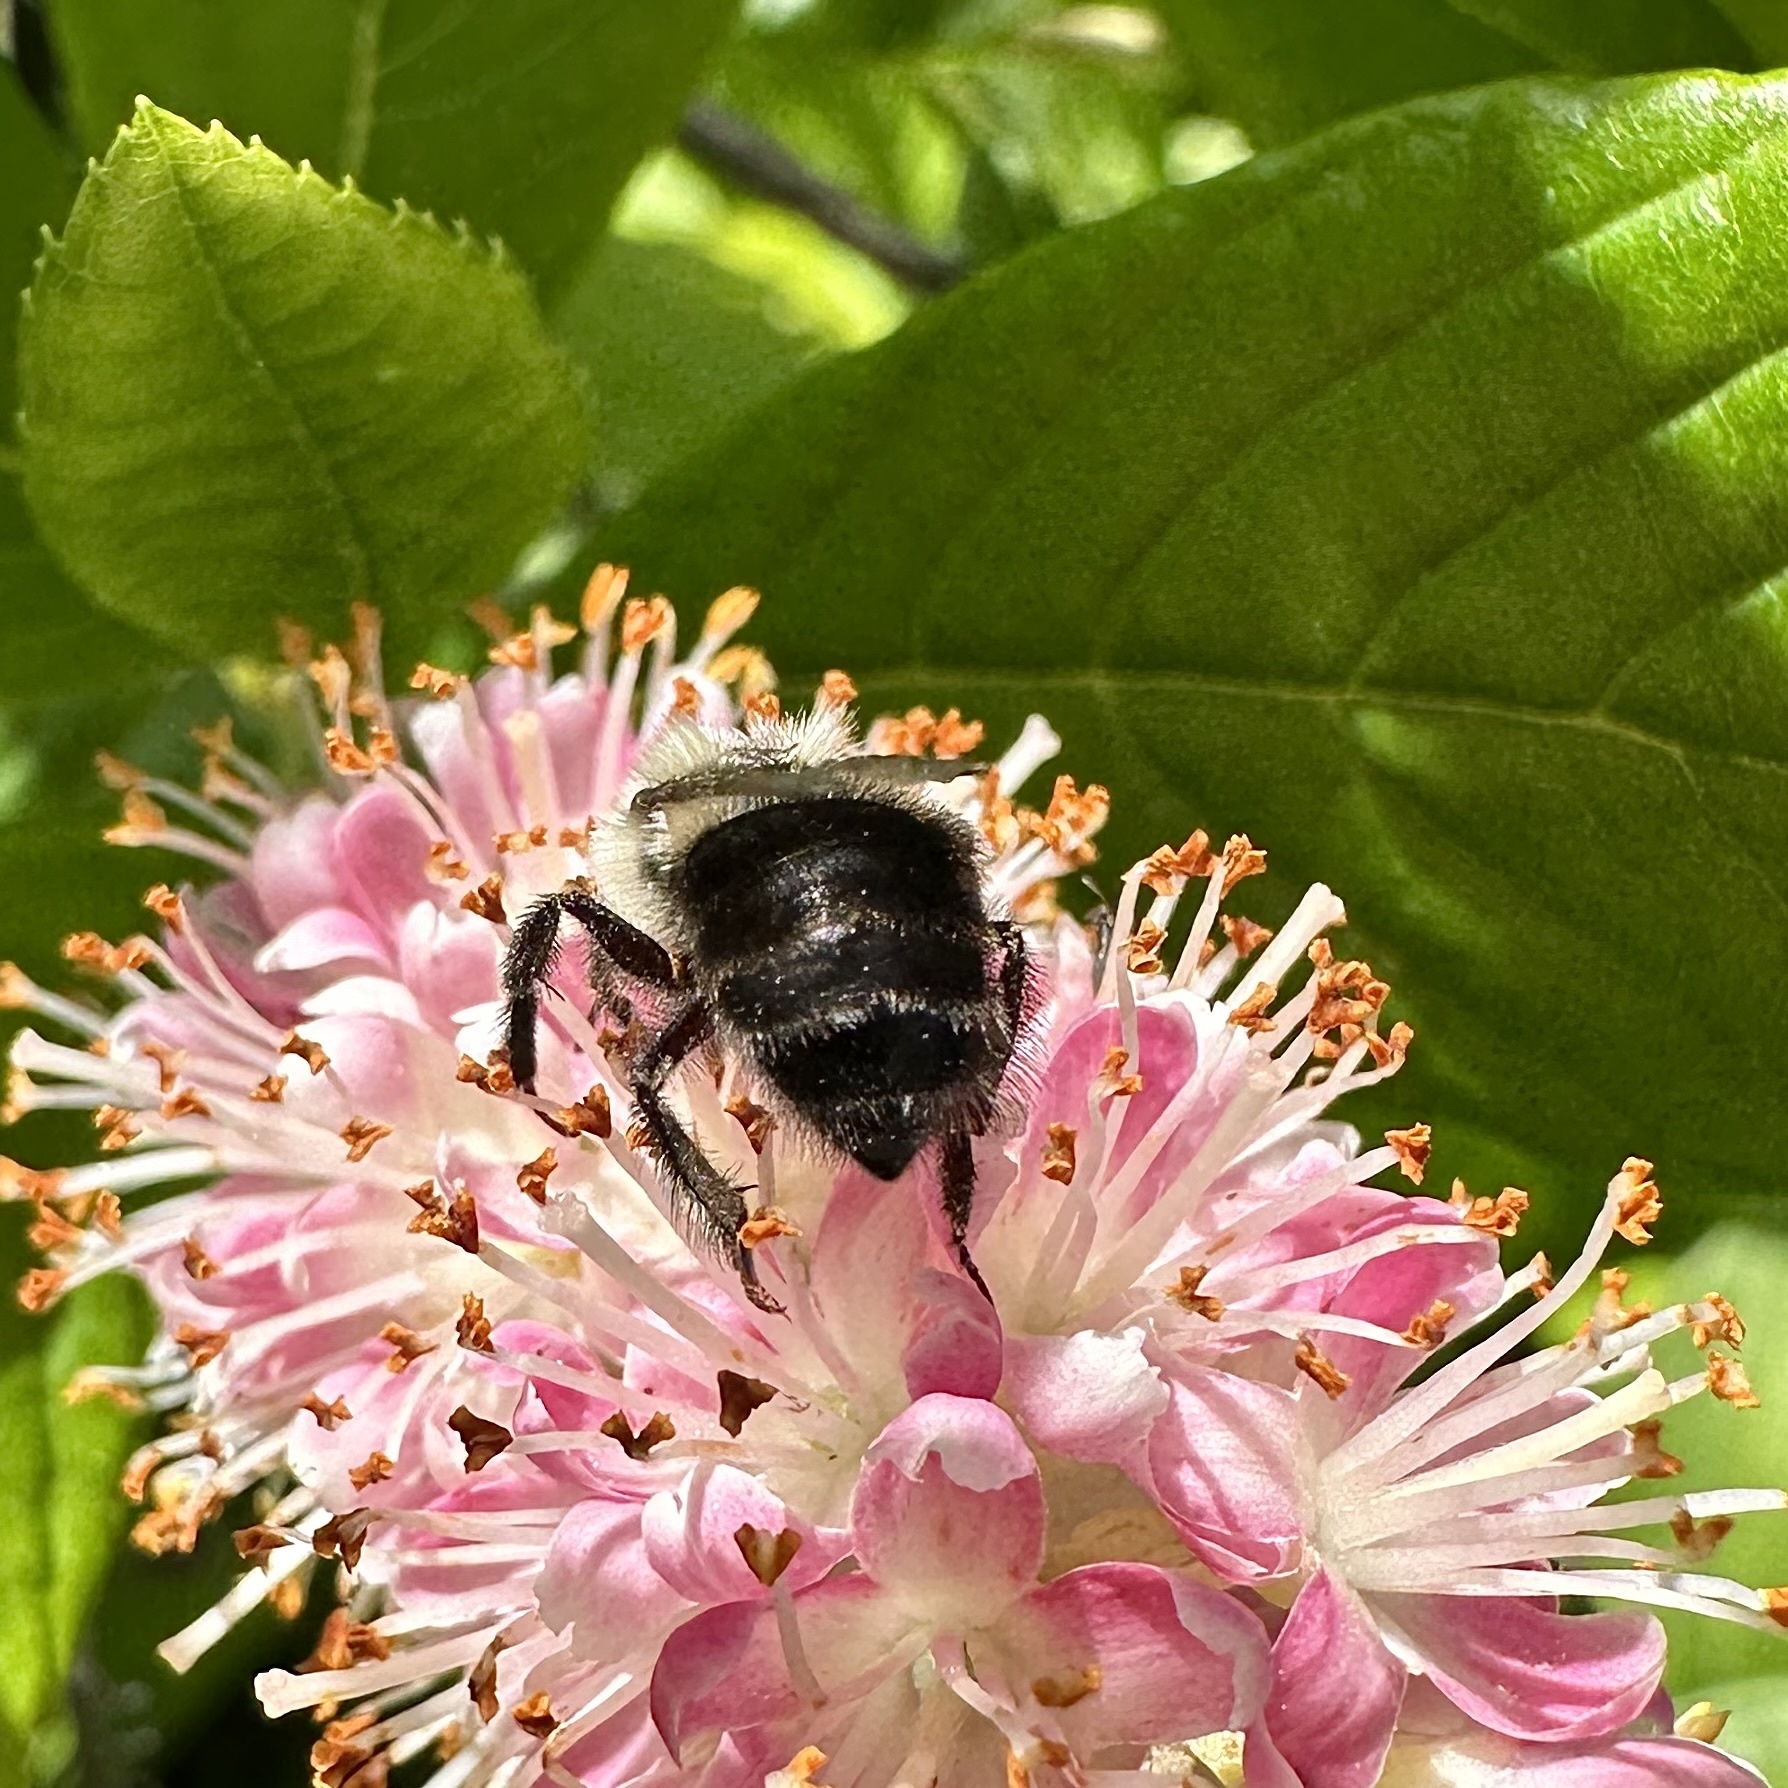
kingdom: Animalia
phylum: Arthropoda
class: Insecta
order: Hymenoptera
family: Apidae
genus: Bombus
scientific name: Bombus impatiens
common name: Common eastern bumble bee
